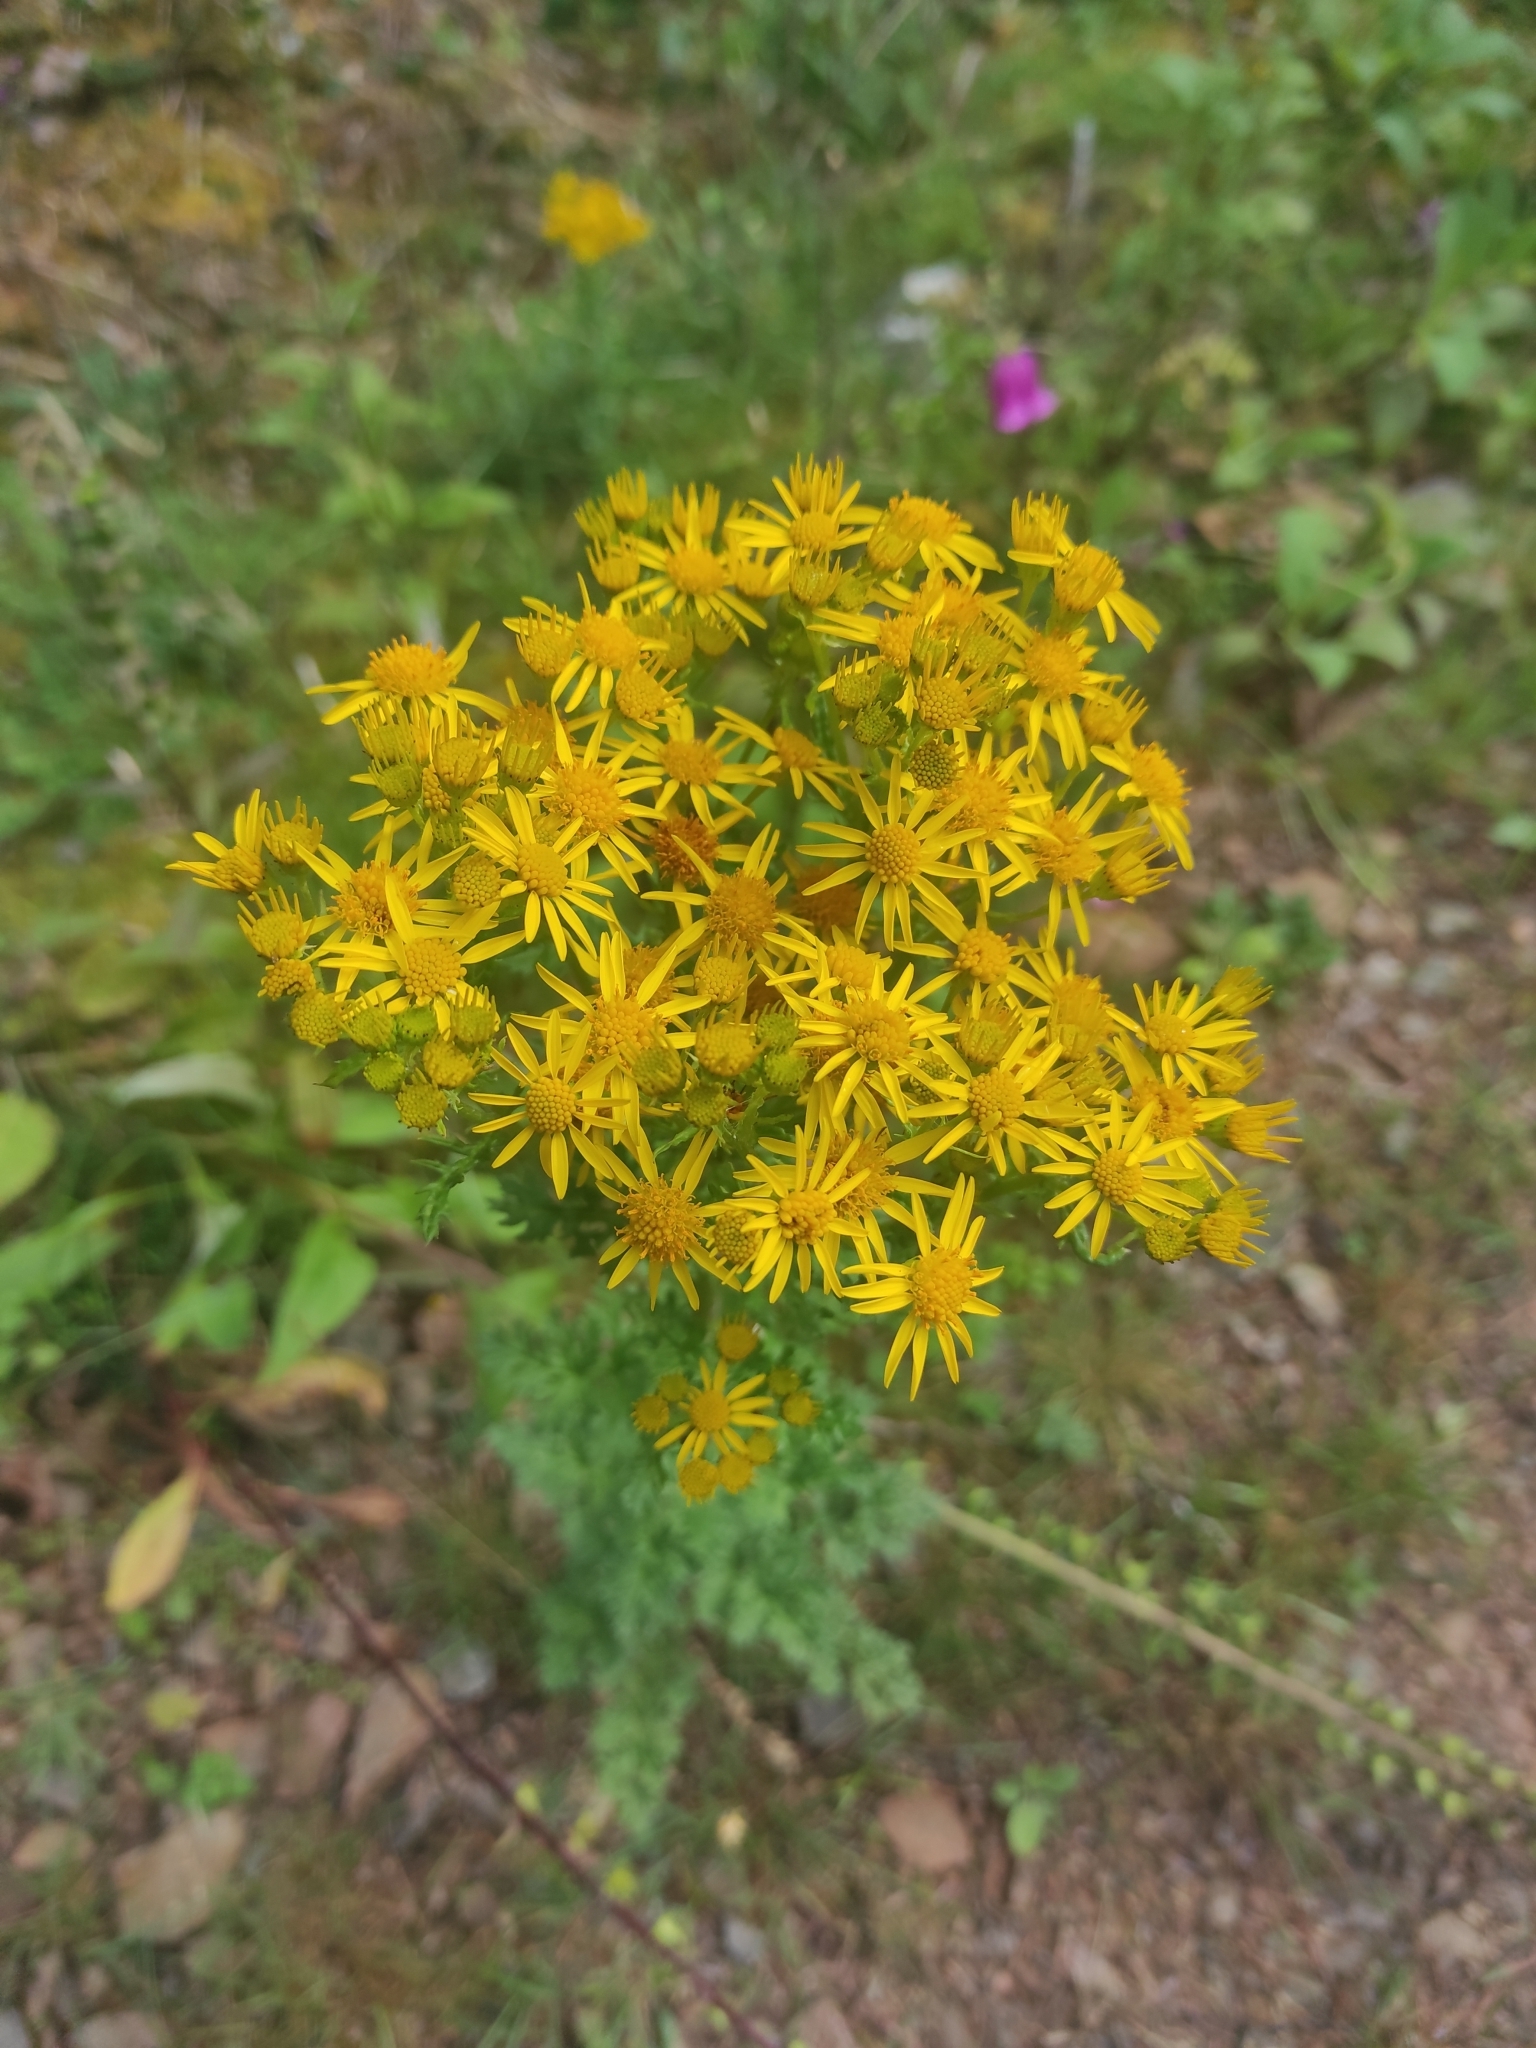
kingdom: Plantae
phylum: Tracheophyta
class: Magnoliopsida
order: Asterales
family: Asteraceae
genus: Jacobaea
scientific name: Jacobaea vulgaris
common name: Stinking willie
